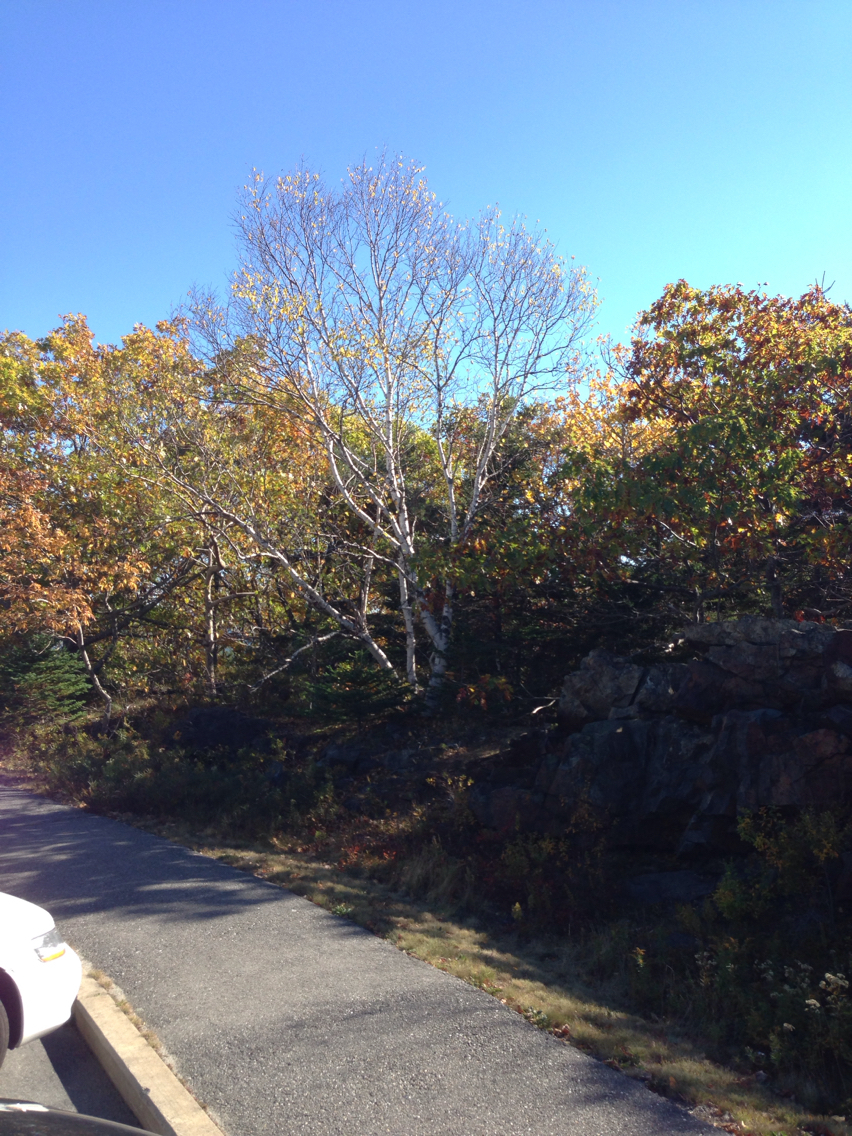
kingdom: Plantae
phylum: Tracheophyta
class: Magnoliopsida
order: Fagales
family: Betulaceae
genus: Betula
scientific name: Betula papyrifera
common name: Paper birch
